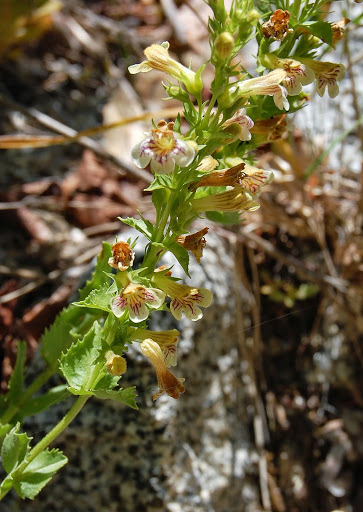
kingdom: Plantae
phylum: Tracheophyta
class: Magnoliopsida
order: Lamiales
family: Plantaginaceae
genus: Penstemon
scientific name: Penstemon deustus
